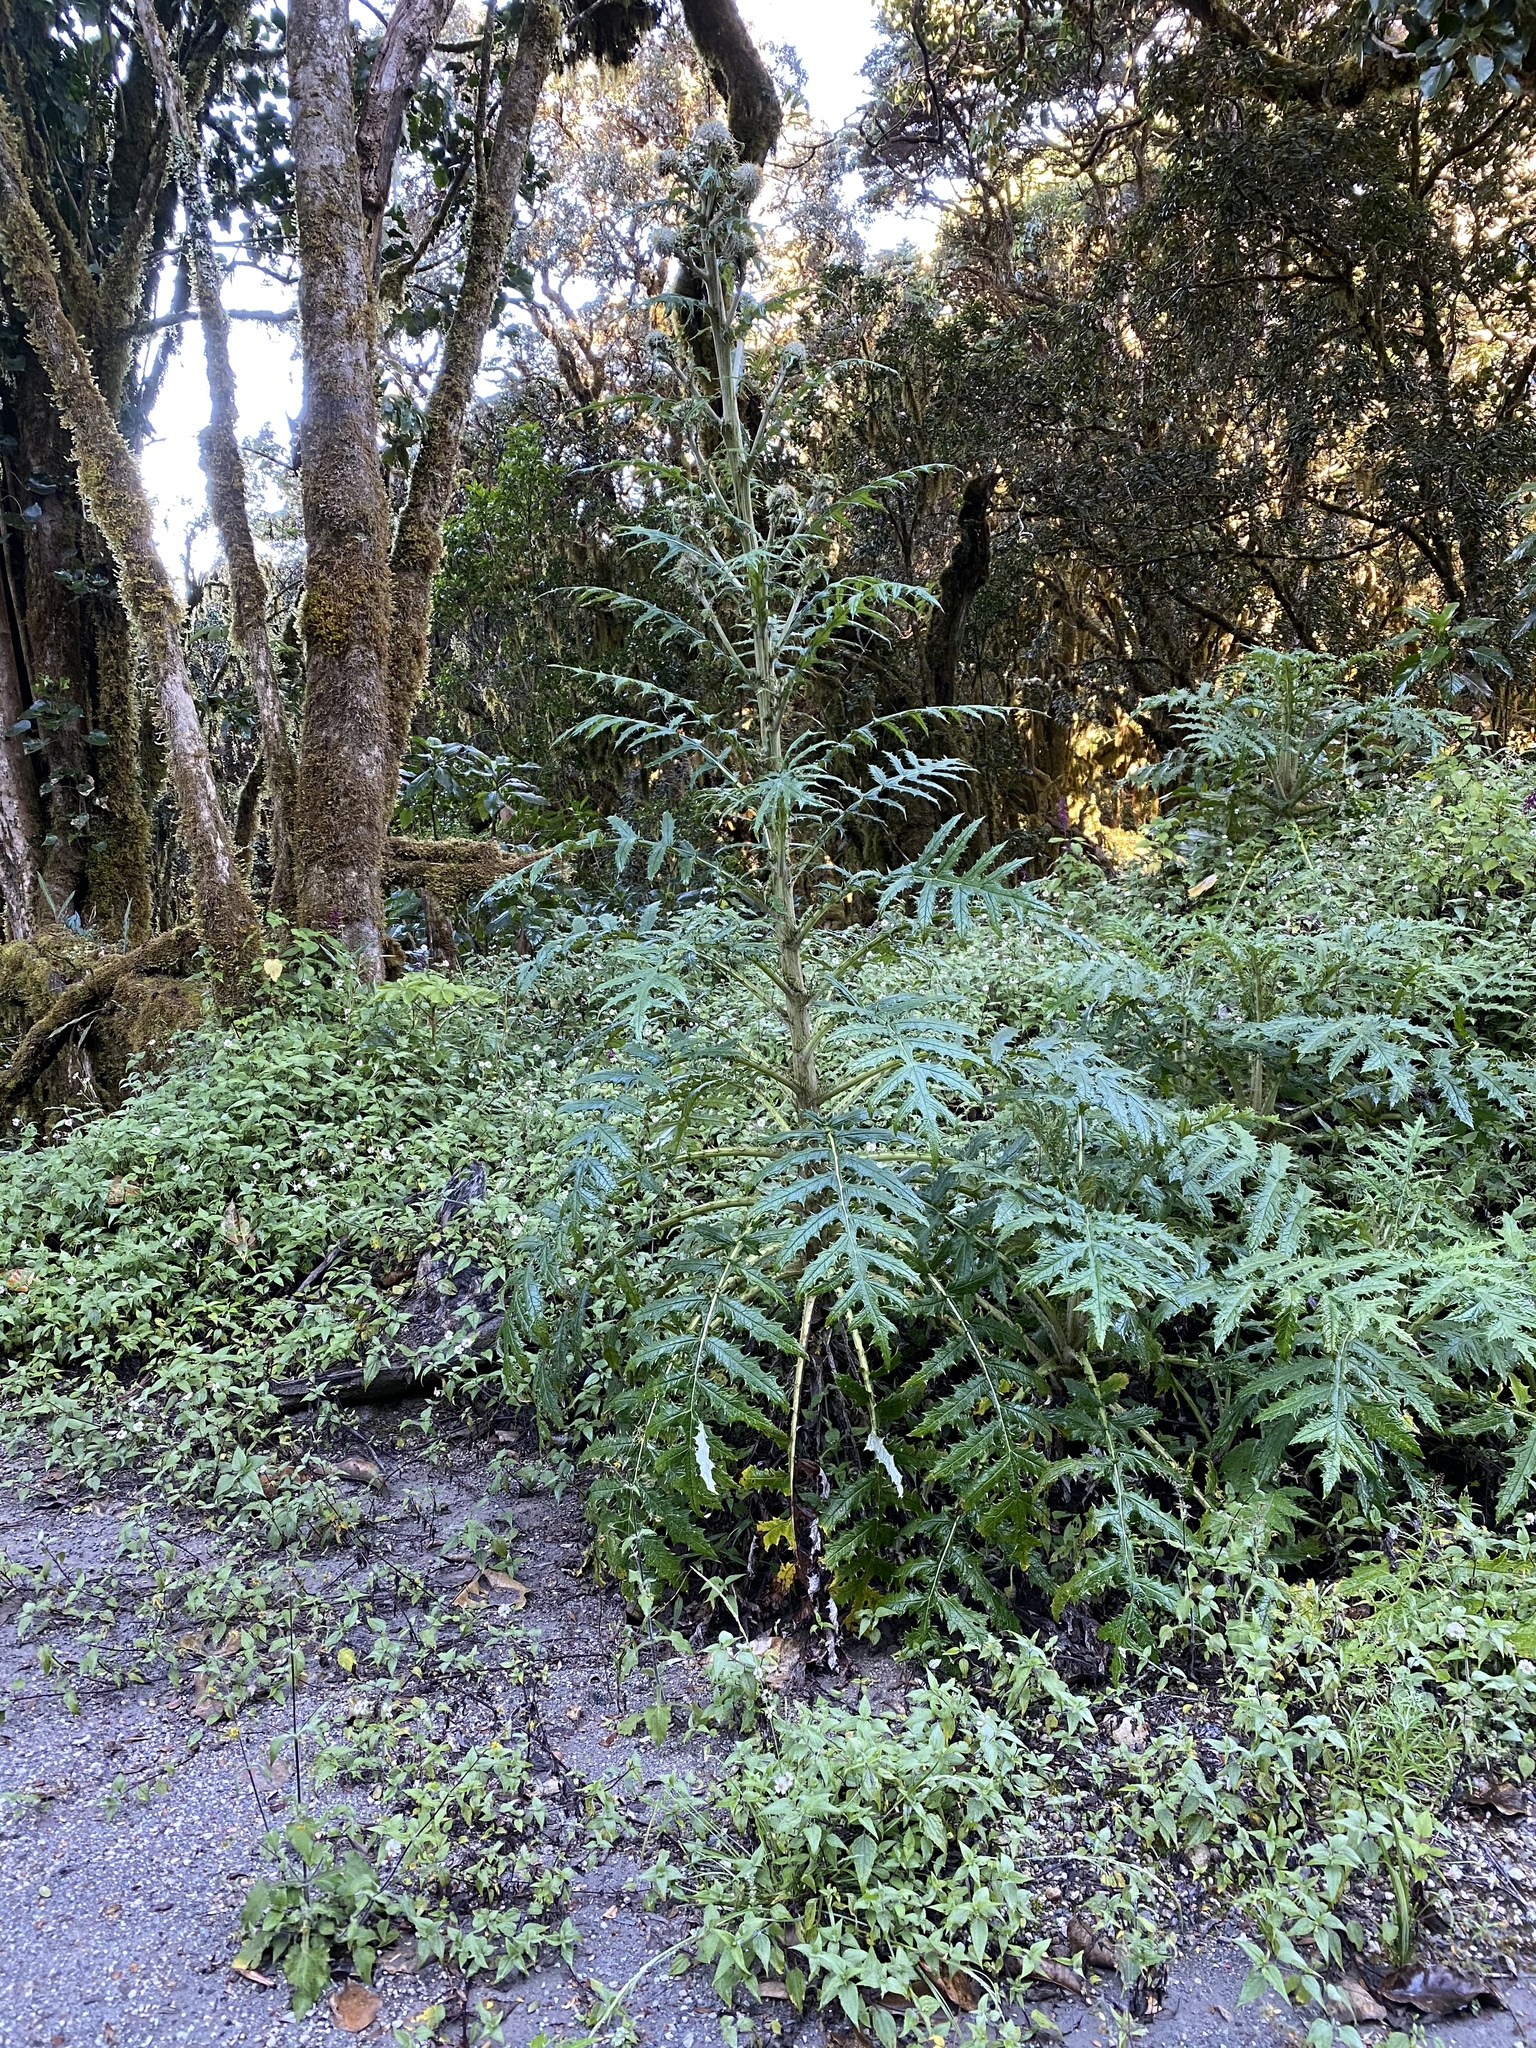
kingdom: Plantae
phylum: Tracheophyta
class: Magnoliopsida
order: Asterales
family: Asteraceae
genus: Cirsium
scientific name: Cirsium subcoriaceum
